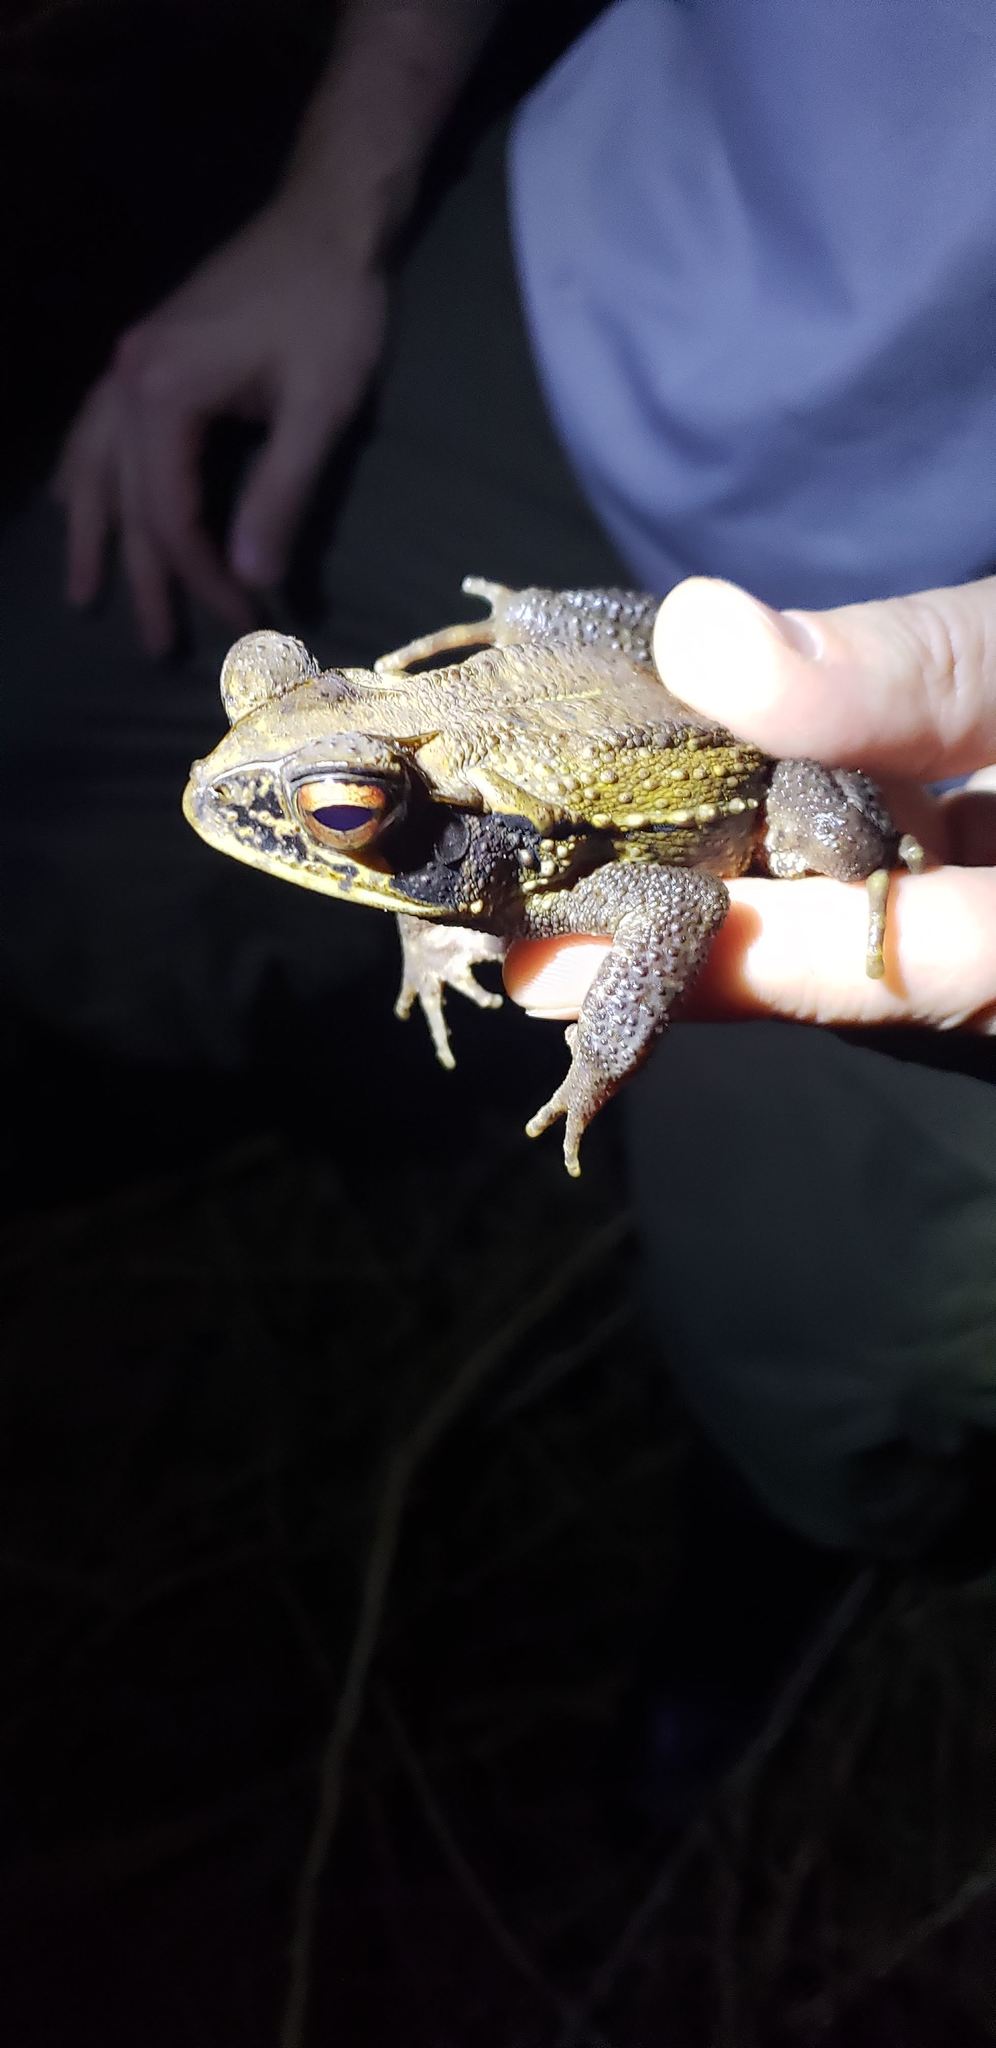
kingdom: Animalia
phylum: Chordata
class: Amphibia
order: Anura
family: Bufonidae
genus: Incilius
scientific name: Incilius melanochlorus
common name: Dark green toad
